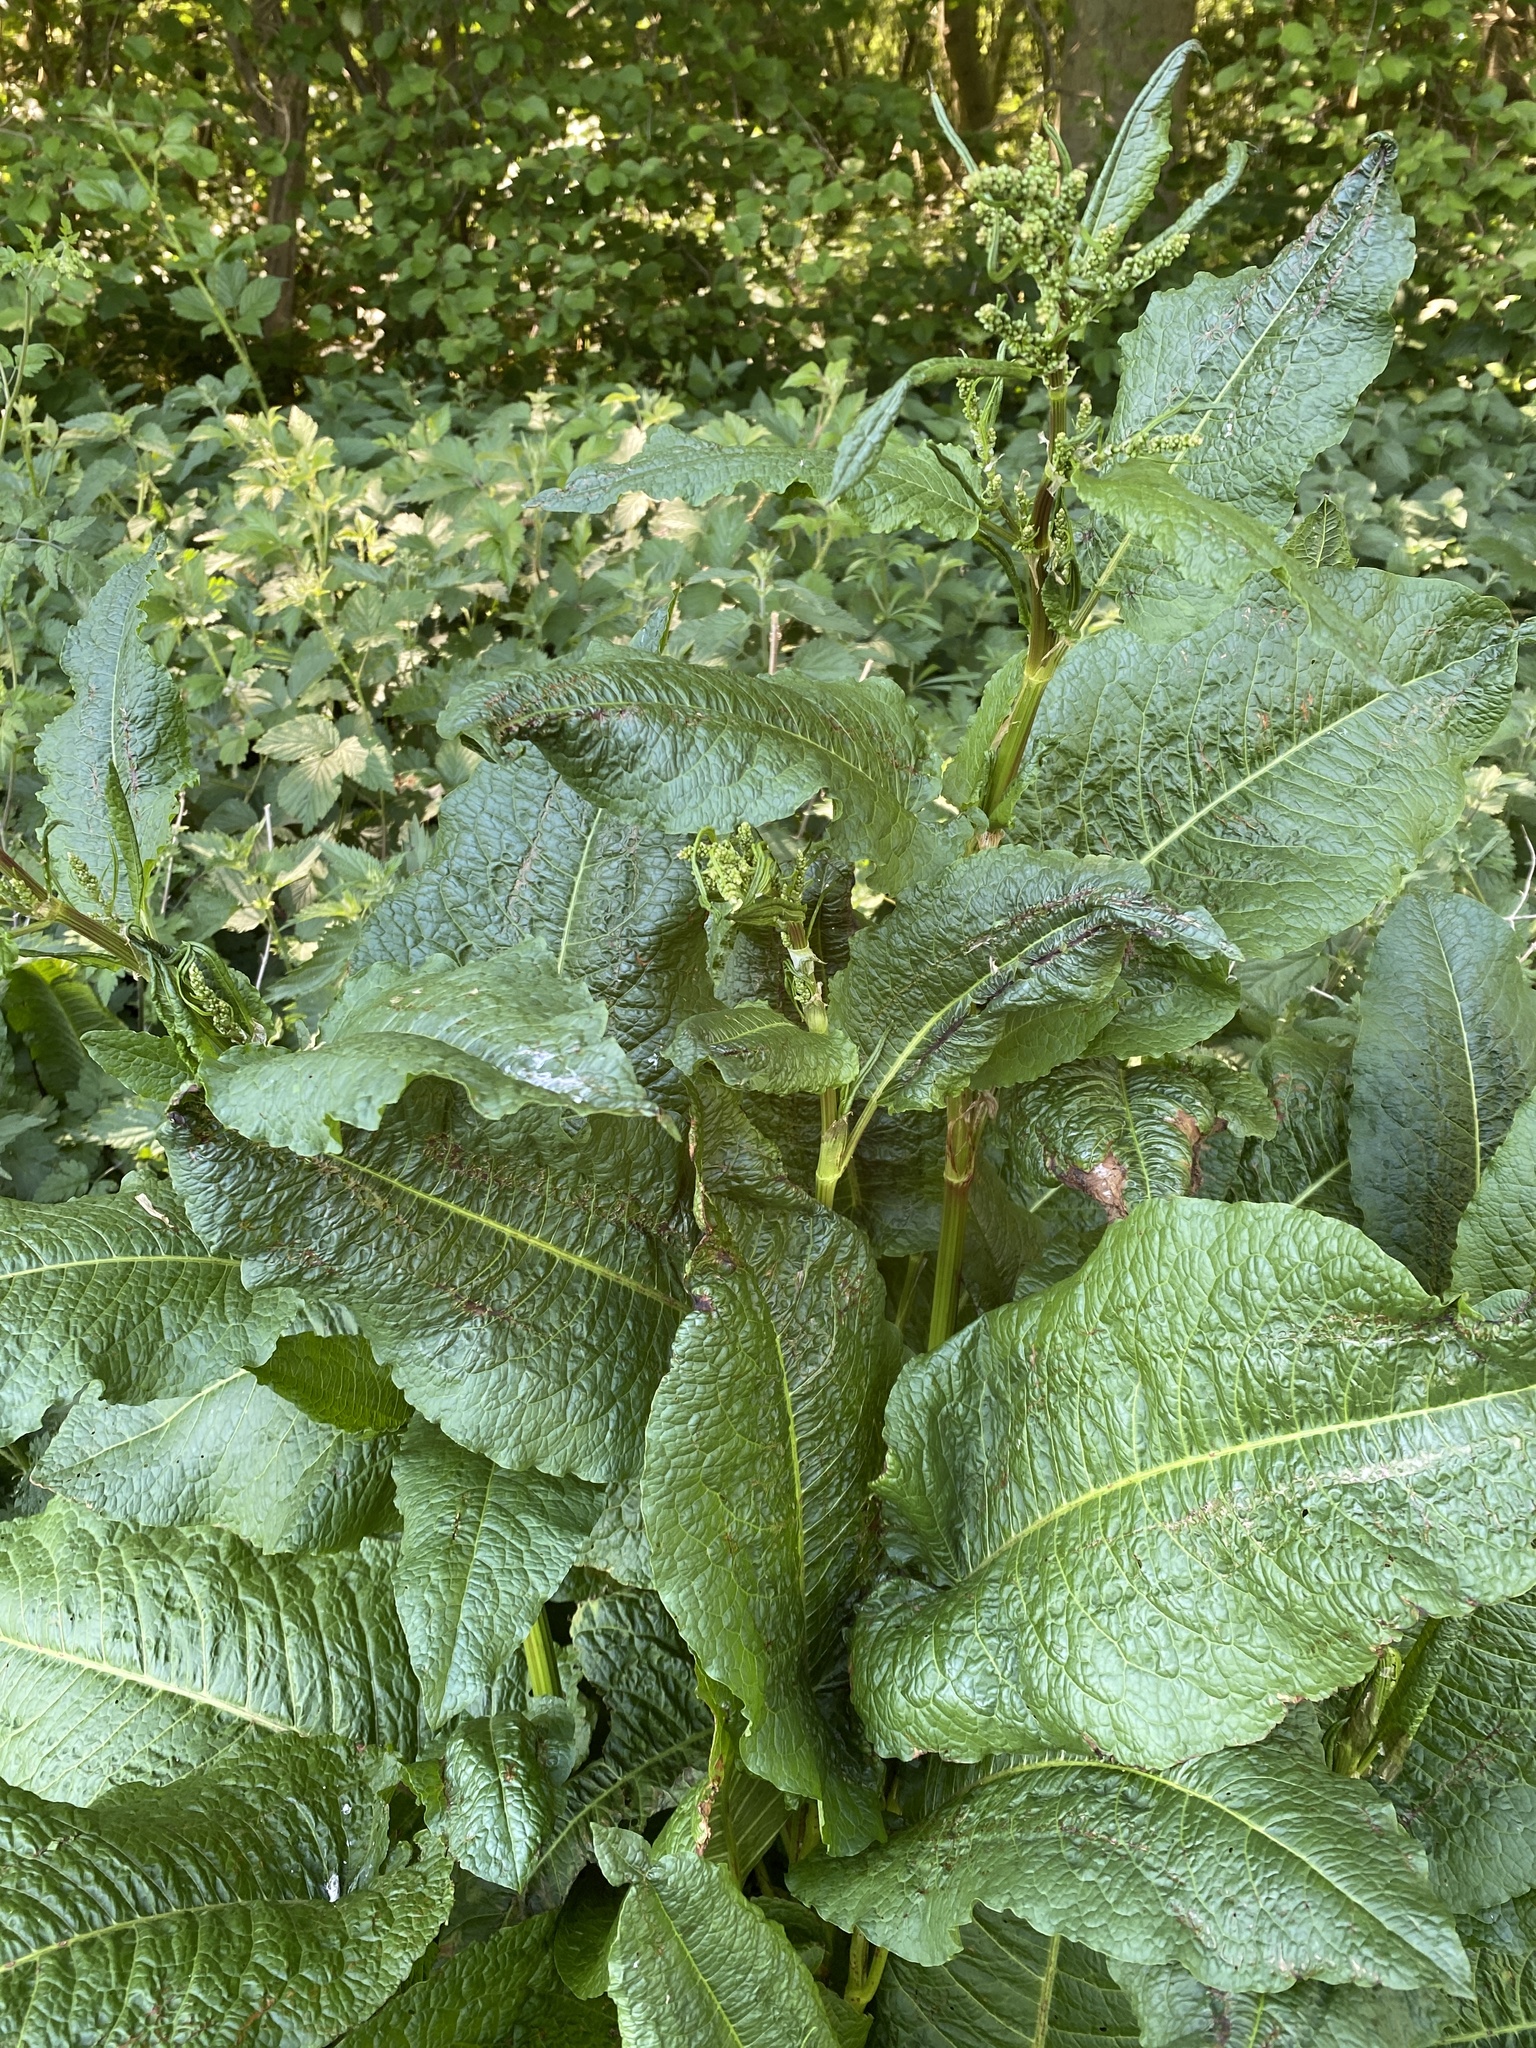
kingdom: Plantae
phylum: Tracheophyta
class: Magnoliopsida
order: Caryophyllales
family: Polygonaceae
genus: Rumex
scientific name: Rumex obtusifolius
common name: Bitter dock
